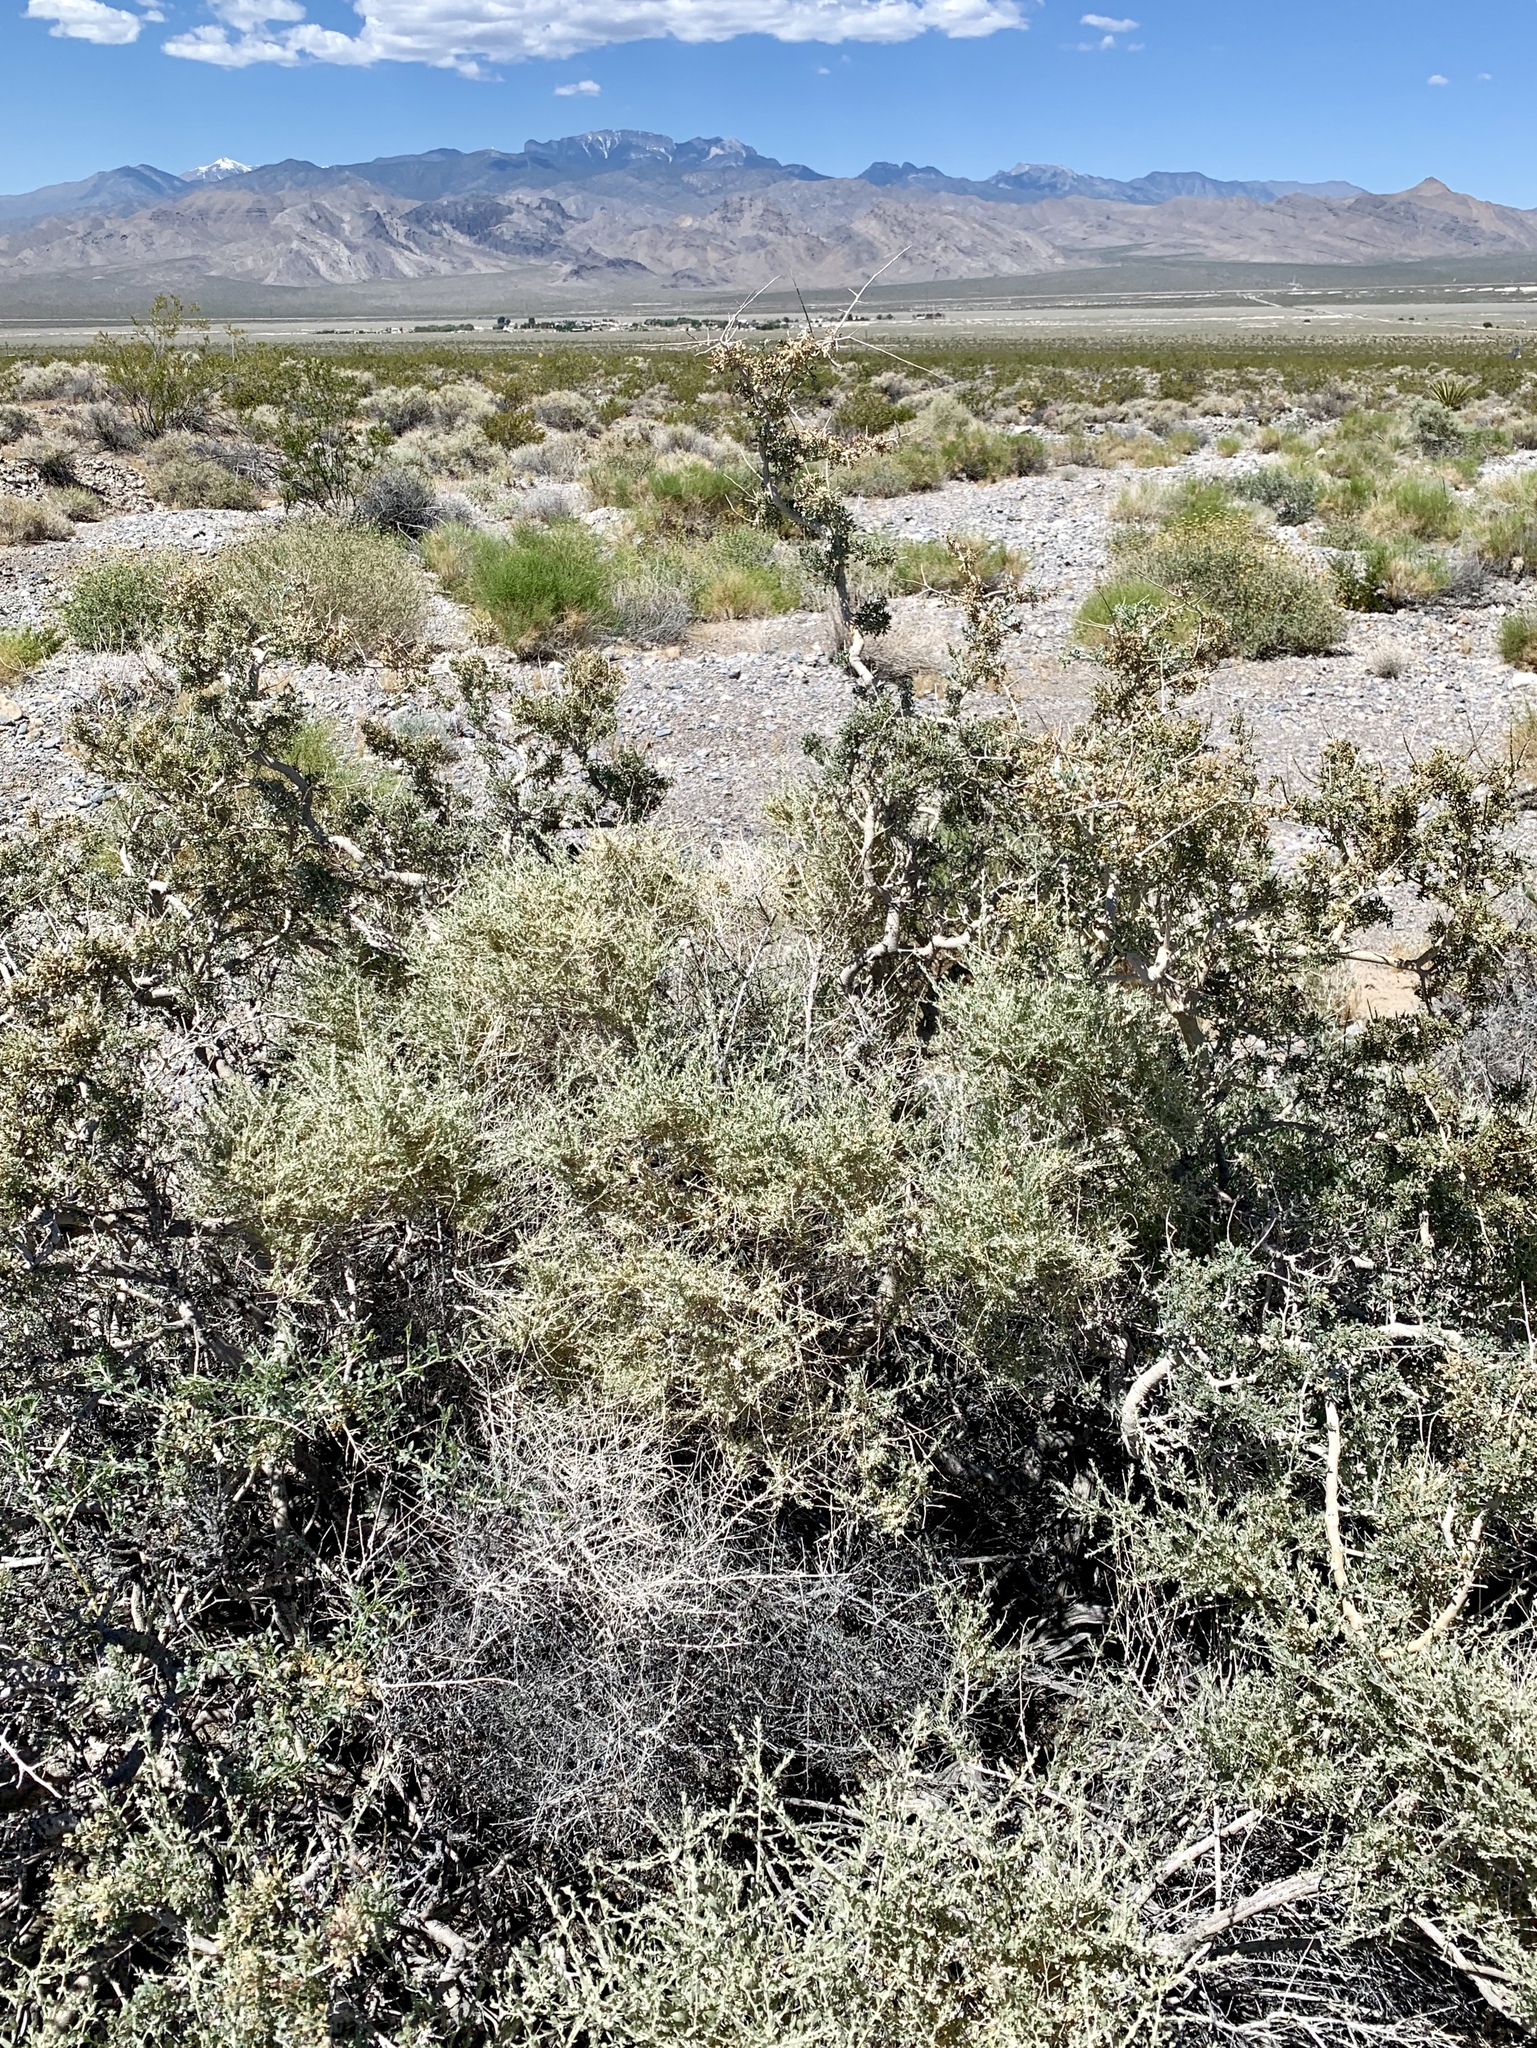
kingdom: Plantae
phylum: Tracheophyta
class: Magnoliopsida
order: Fabales
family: Fabaceae
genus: Psorothamnus
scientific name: Psorothamnus arborescens
